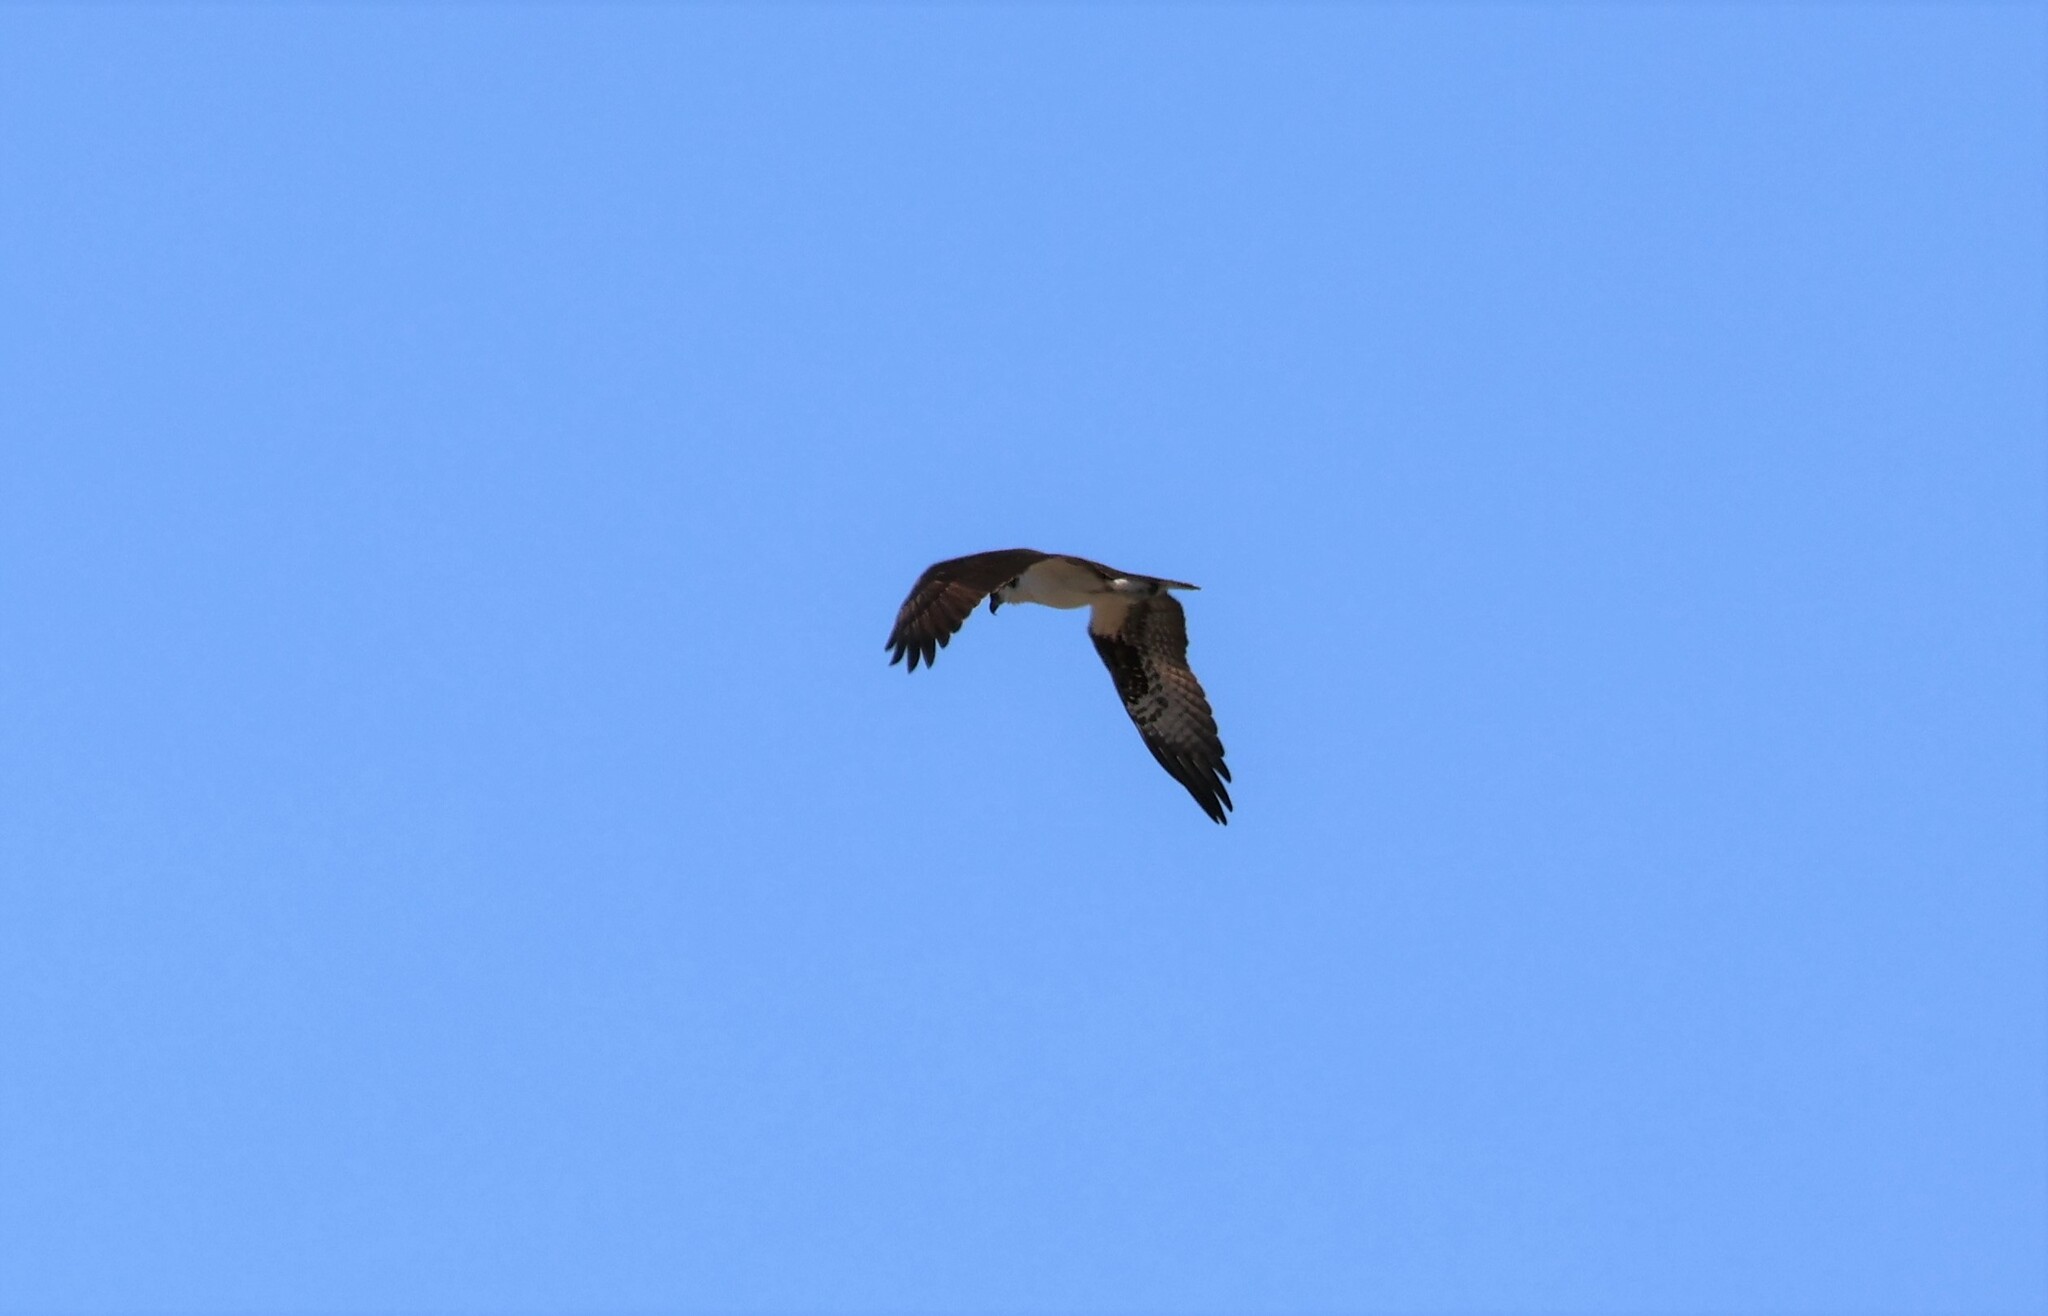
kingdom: Animalia
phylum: Chordata
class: Aves
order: Accipitriformes
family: Pandionidae
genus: Pandion
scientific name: Pandion haliaetus
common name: Osprey
